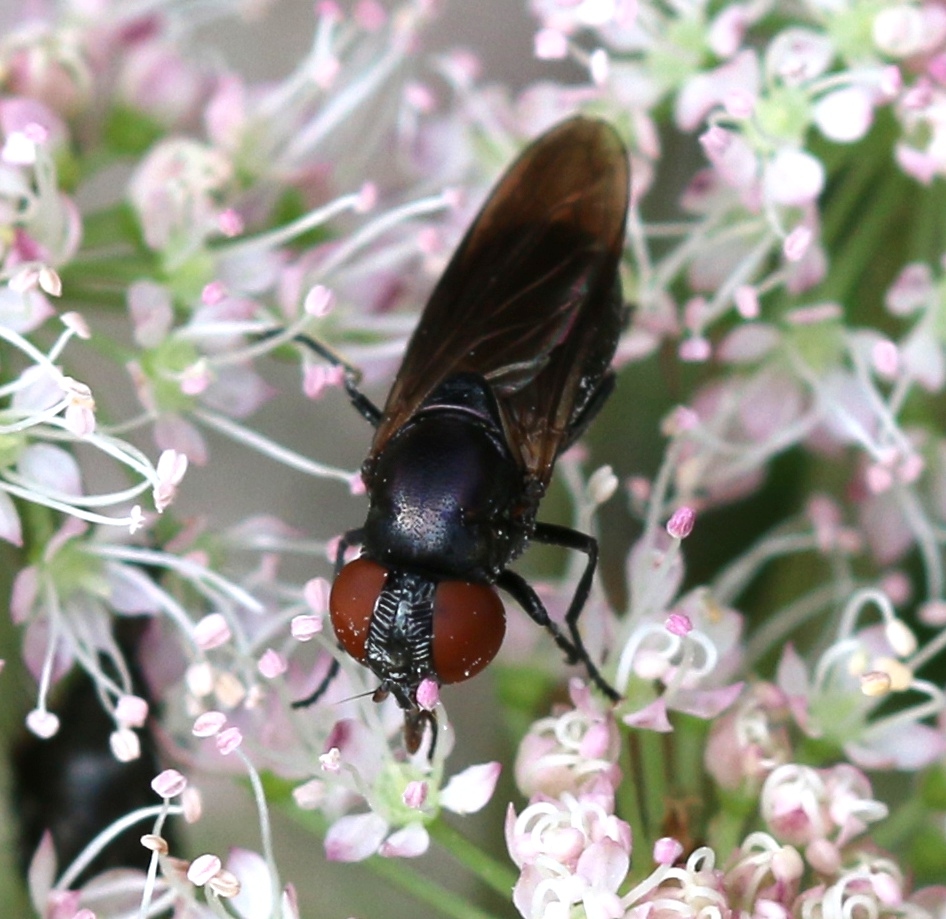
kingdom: Animalia
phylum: Arthropoda
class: Insecta
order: Diptera
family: Syrphidae
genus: Chrysogaster
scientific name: Chrysogaster solstitialis
